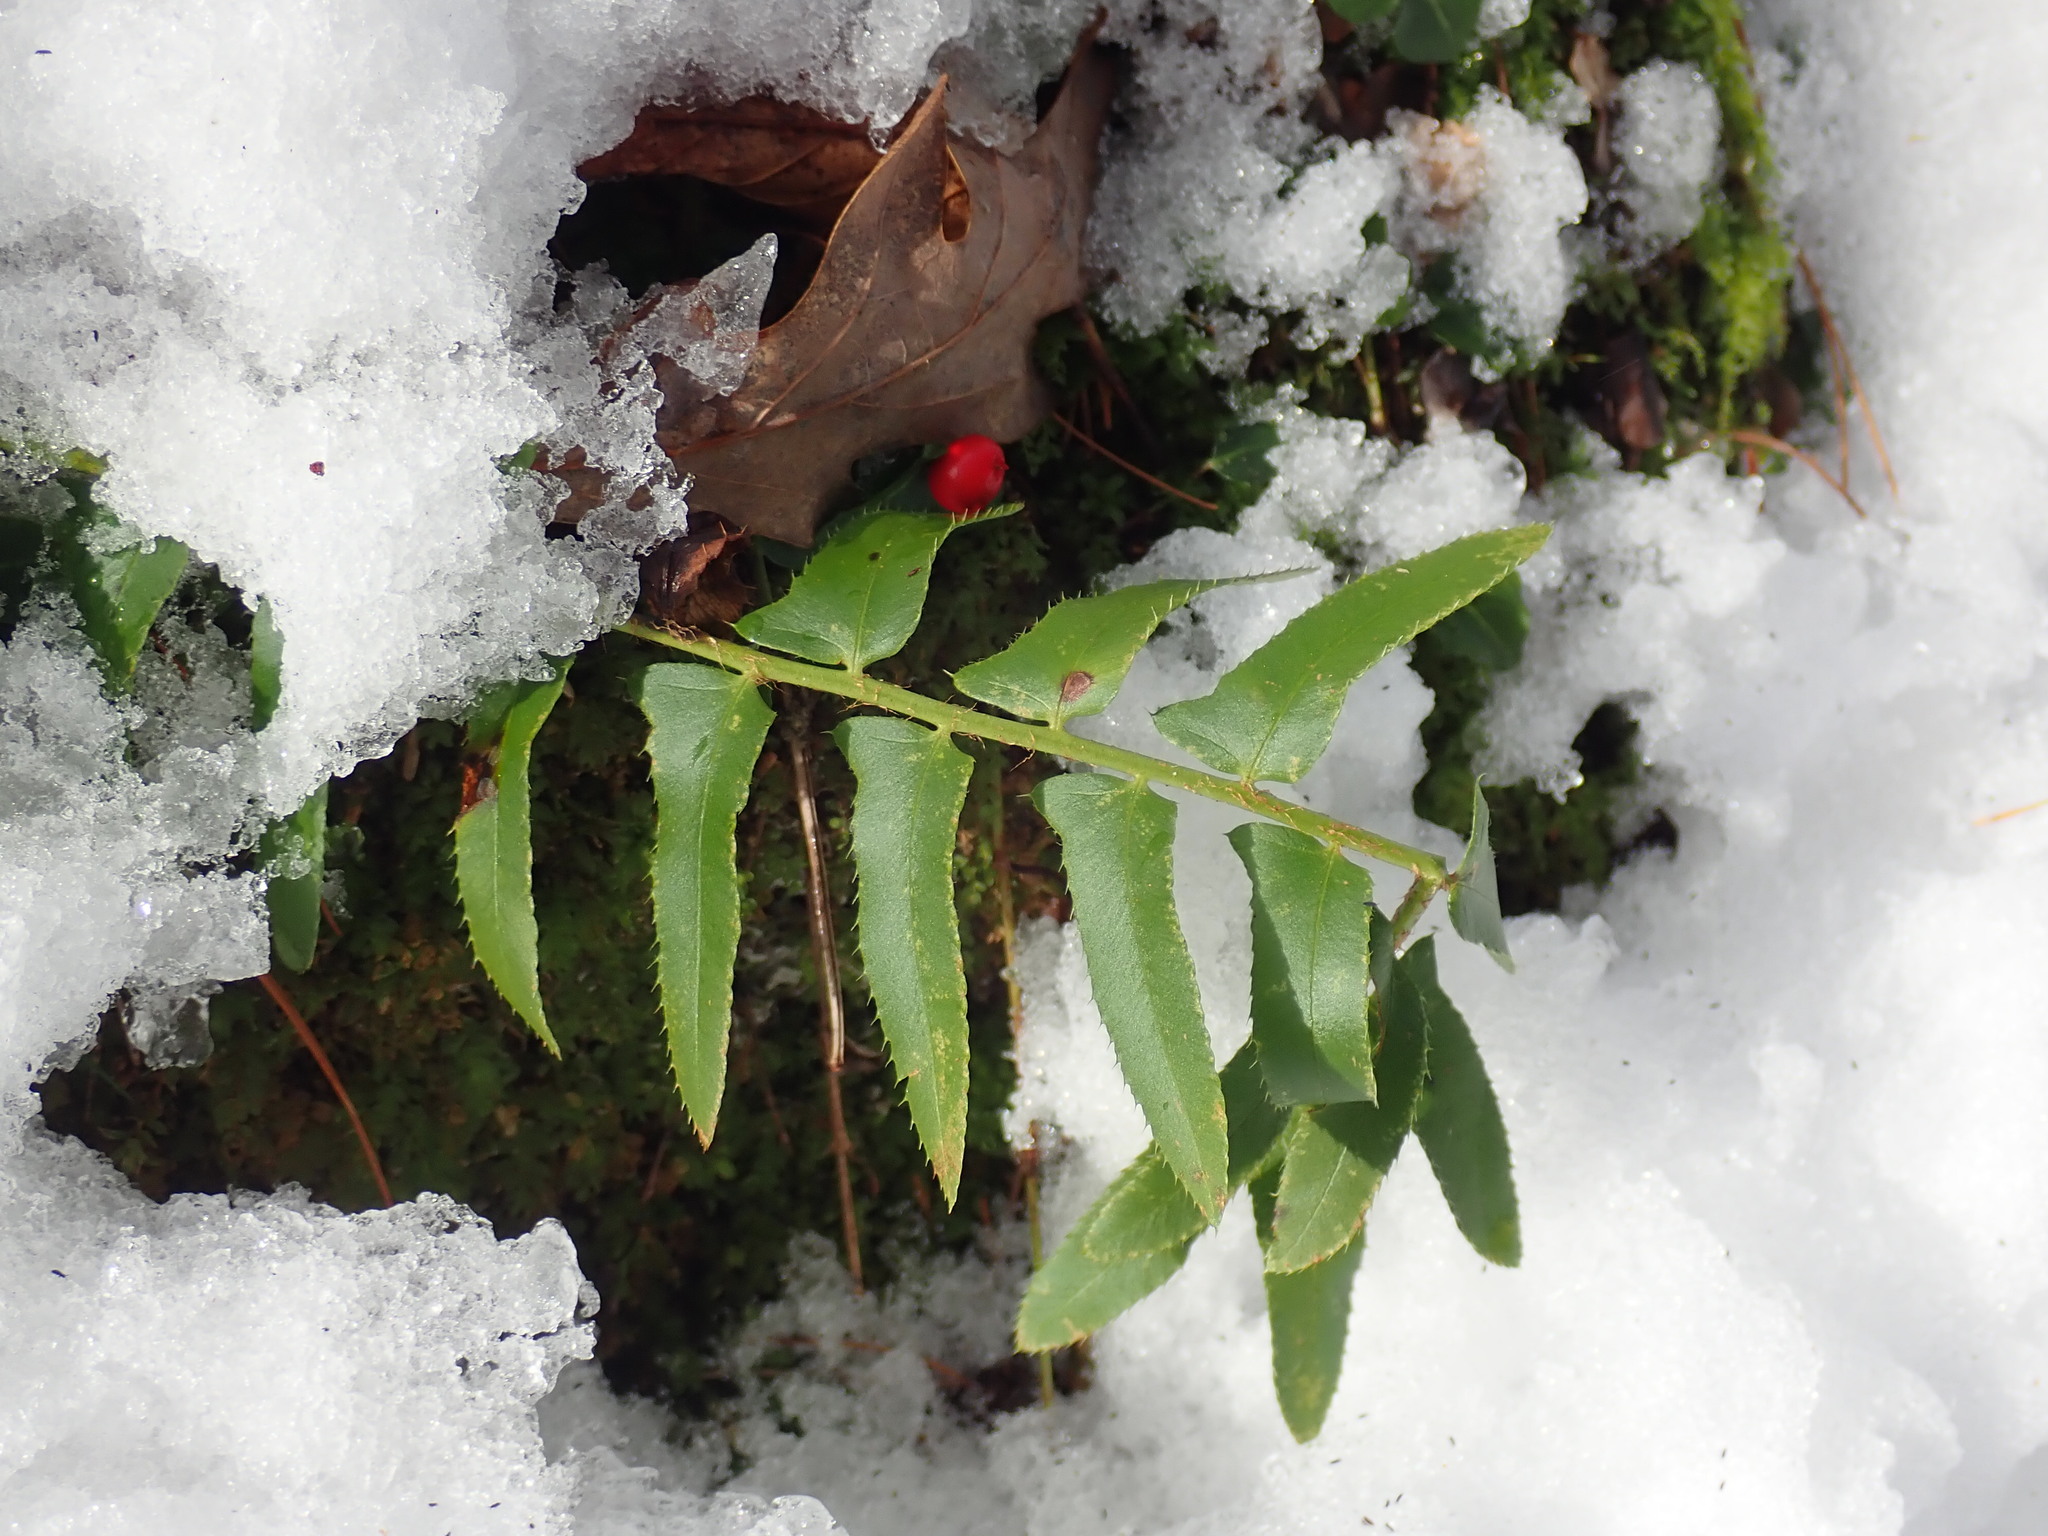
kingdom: Plantae
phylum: Tracheophyta
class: Polypodiopsida
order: Polypodiales
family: Dryopteridaceae
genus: Polystichum
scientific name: Polystichum acrostichoides
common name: Christmas fern
